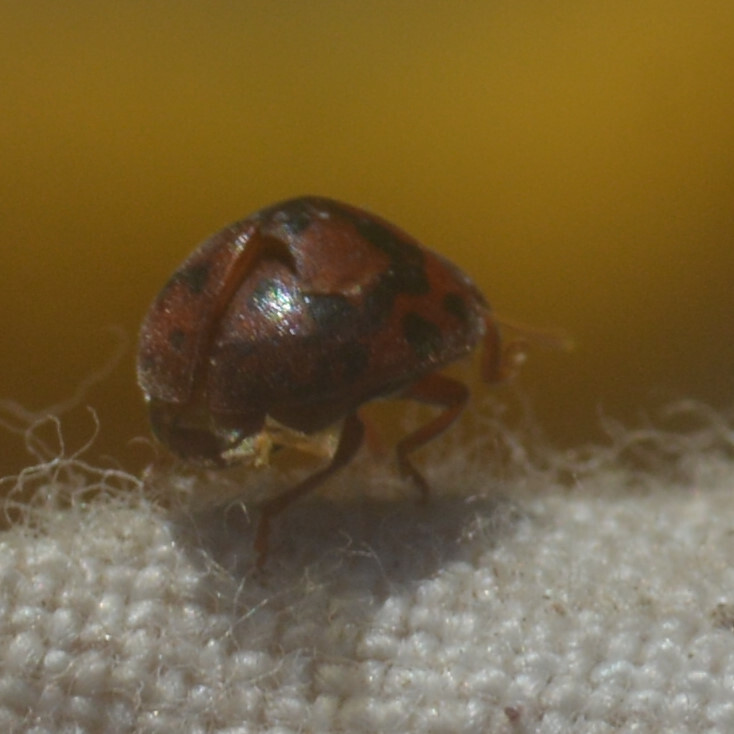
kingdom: Animalia
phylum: Arthropoda
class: Insecta
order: Coleoptera
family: Coccinellidae
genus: Subcoccinella
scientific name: Subcoccinella vigintiquatuorpunctata
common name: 24-spot ladybird
